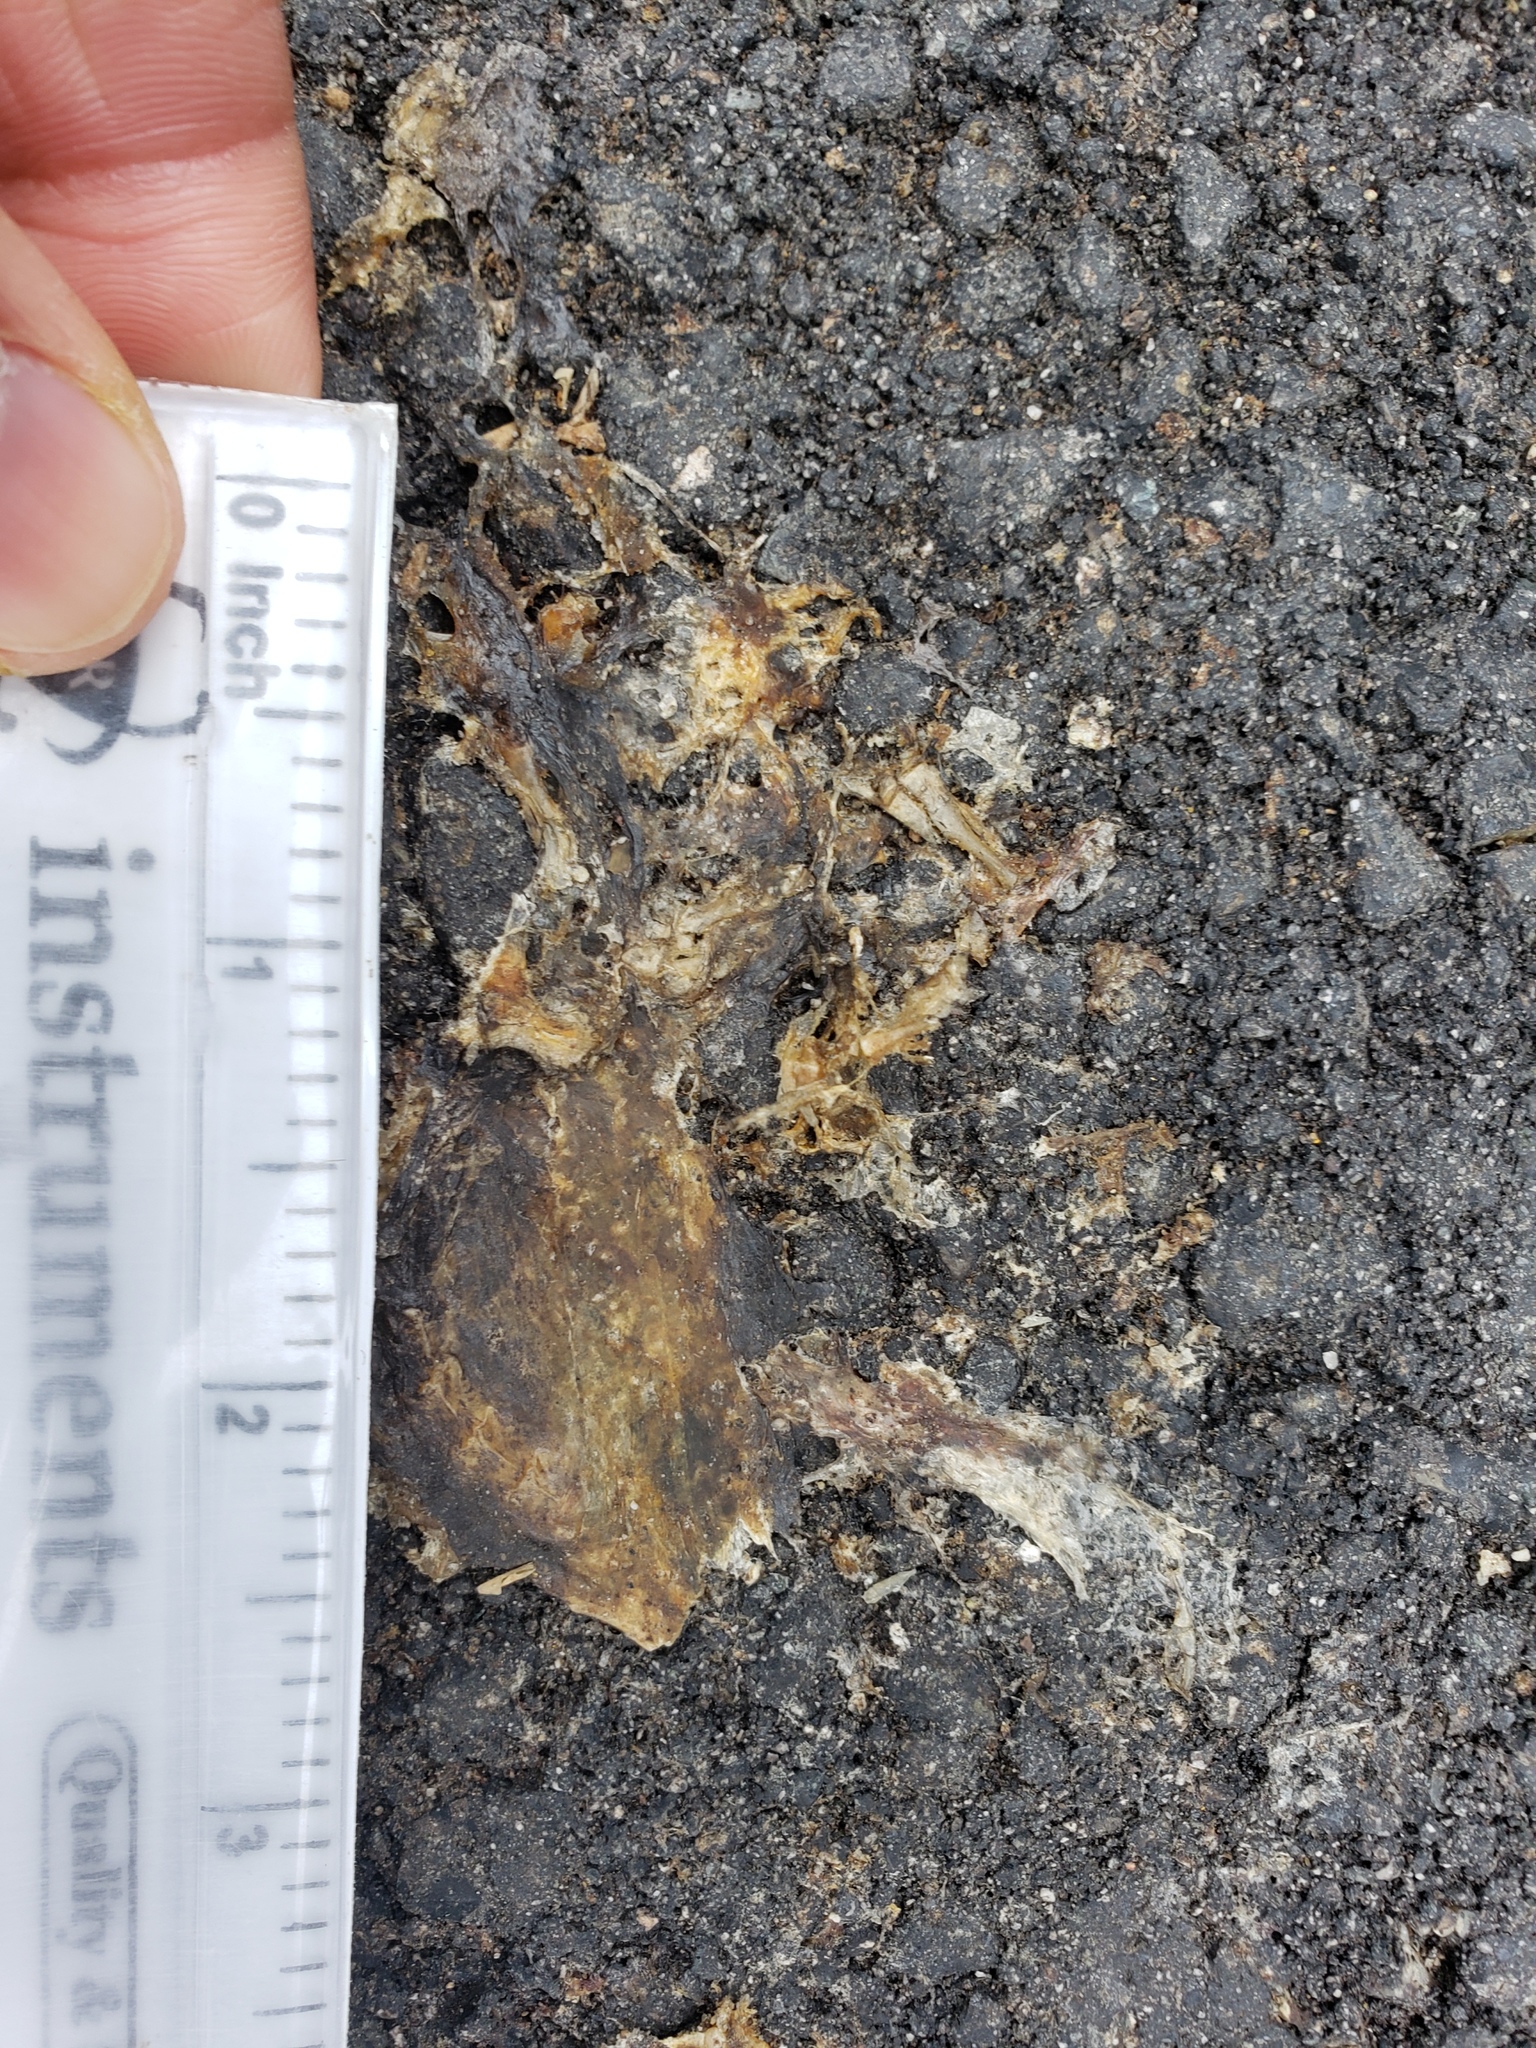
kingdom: Animalia
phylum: Chordata
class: Amphibia
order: Caudata
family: Salamandridae
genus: Taricha
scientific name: Taricha
